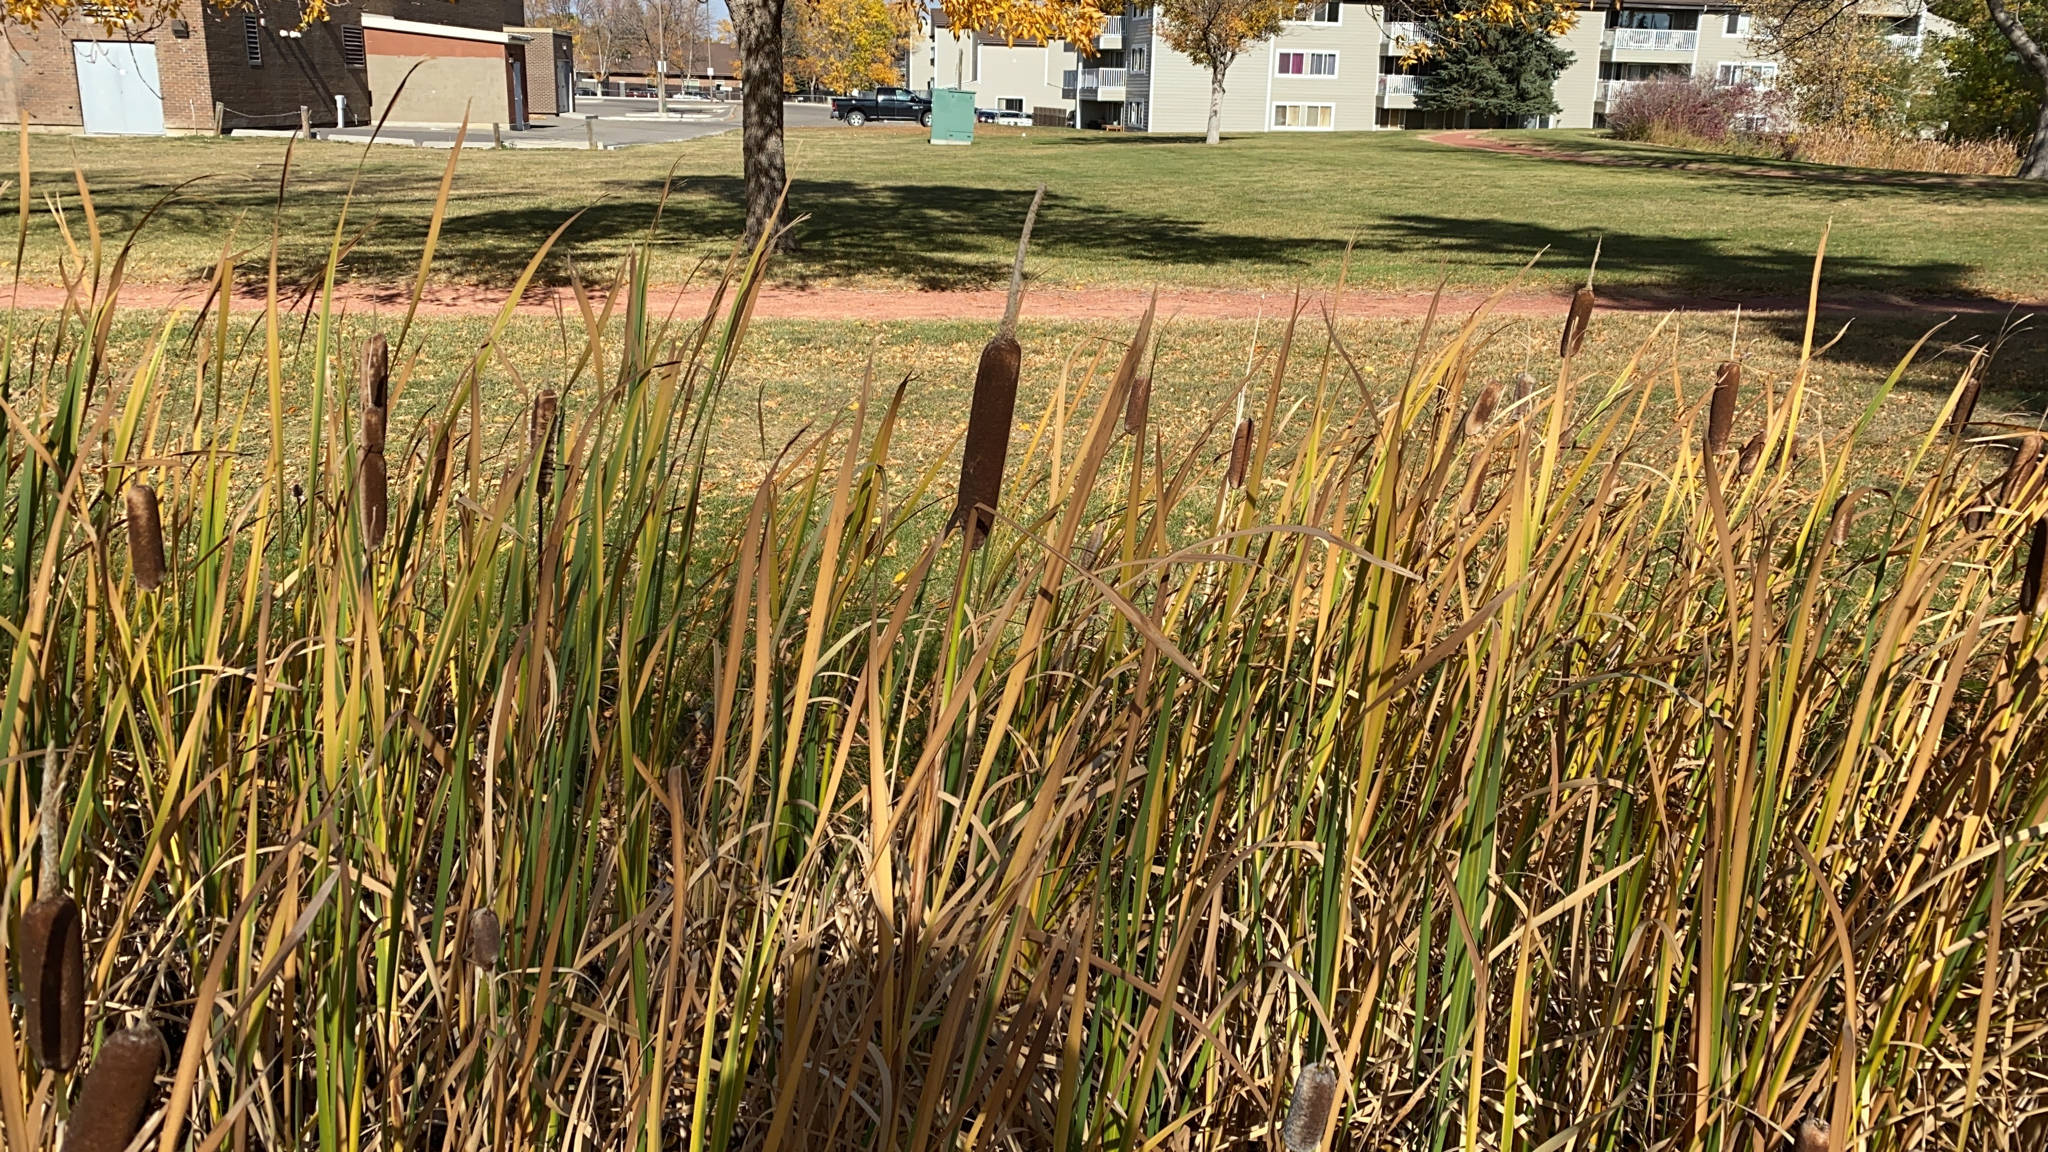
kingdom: Plantae
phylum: Tracheophyta
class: Liliopsida
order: Poales
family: Typhaceae
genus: Typha
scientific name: Typha latifolia
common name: Broadleaf cattail
